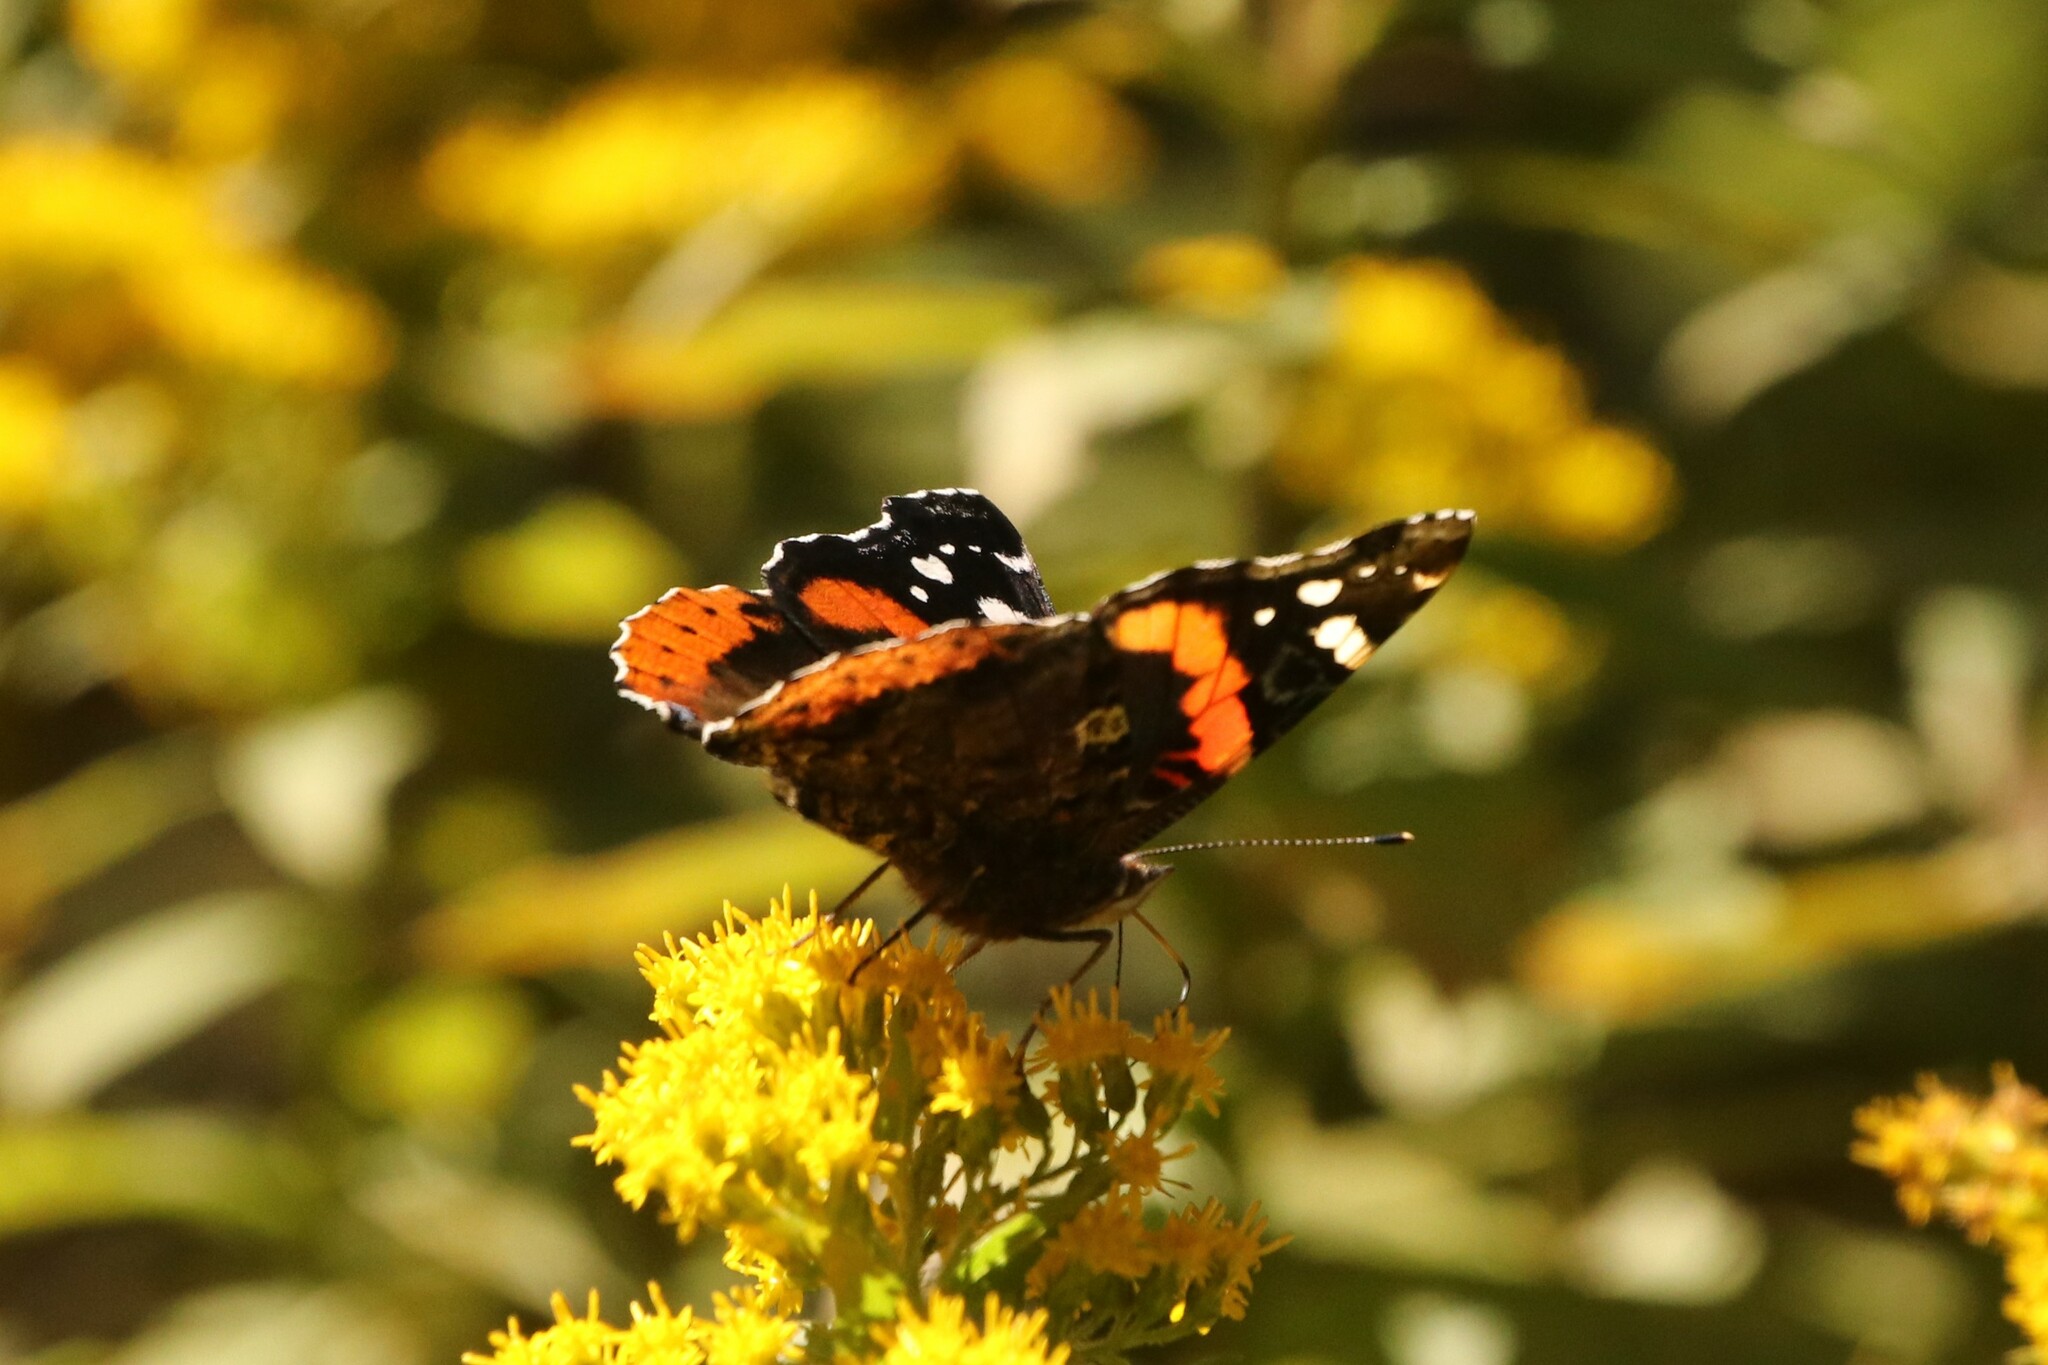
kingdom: Animalia
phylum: Arthropoda
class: Insecta
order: Lepidoptera
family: Nymphalidae
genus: Vanessa
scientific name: Vanessa atalanta
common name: Red admiral
